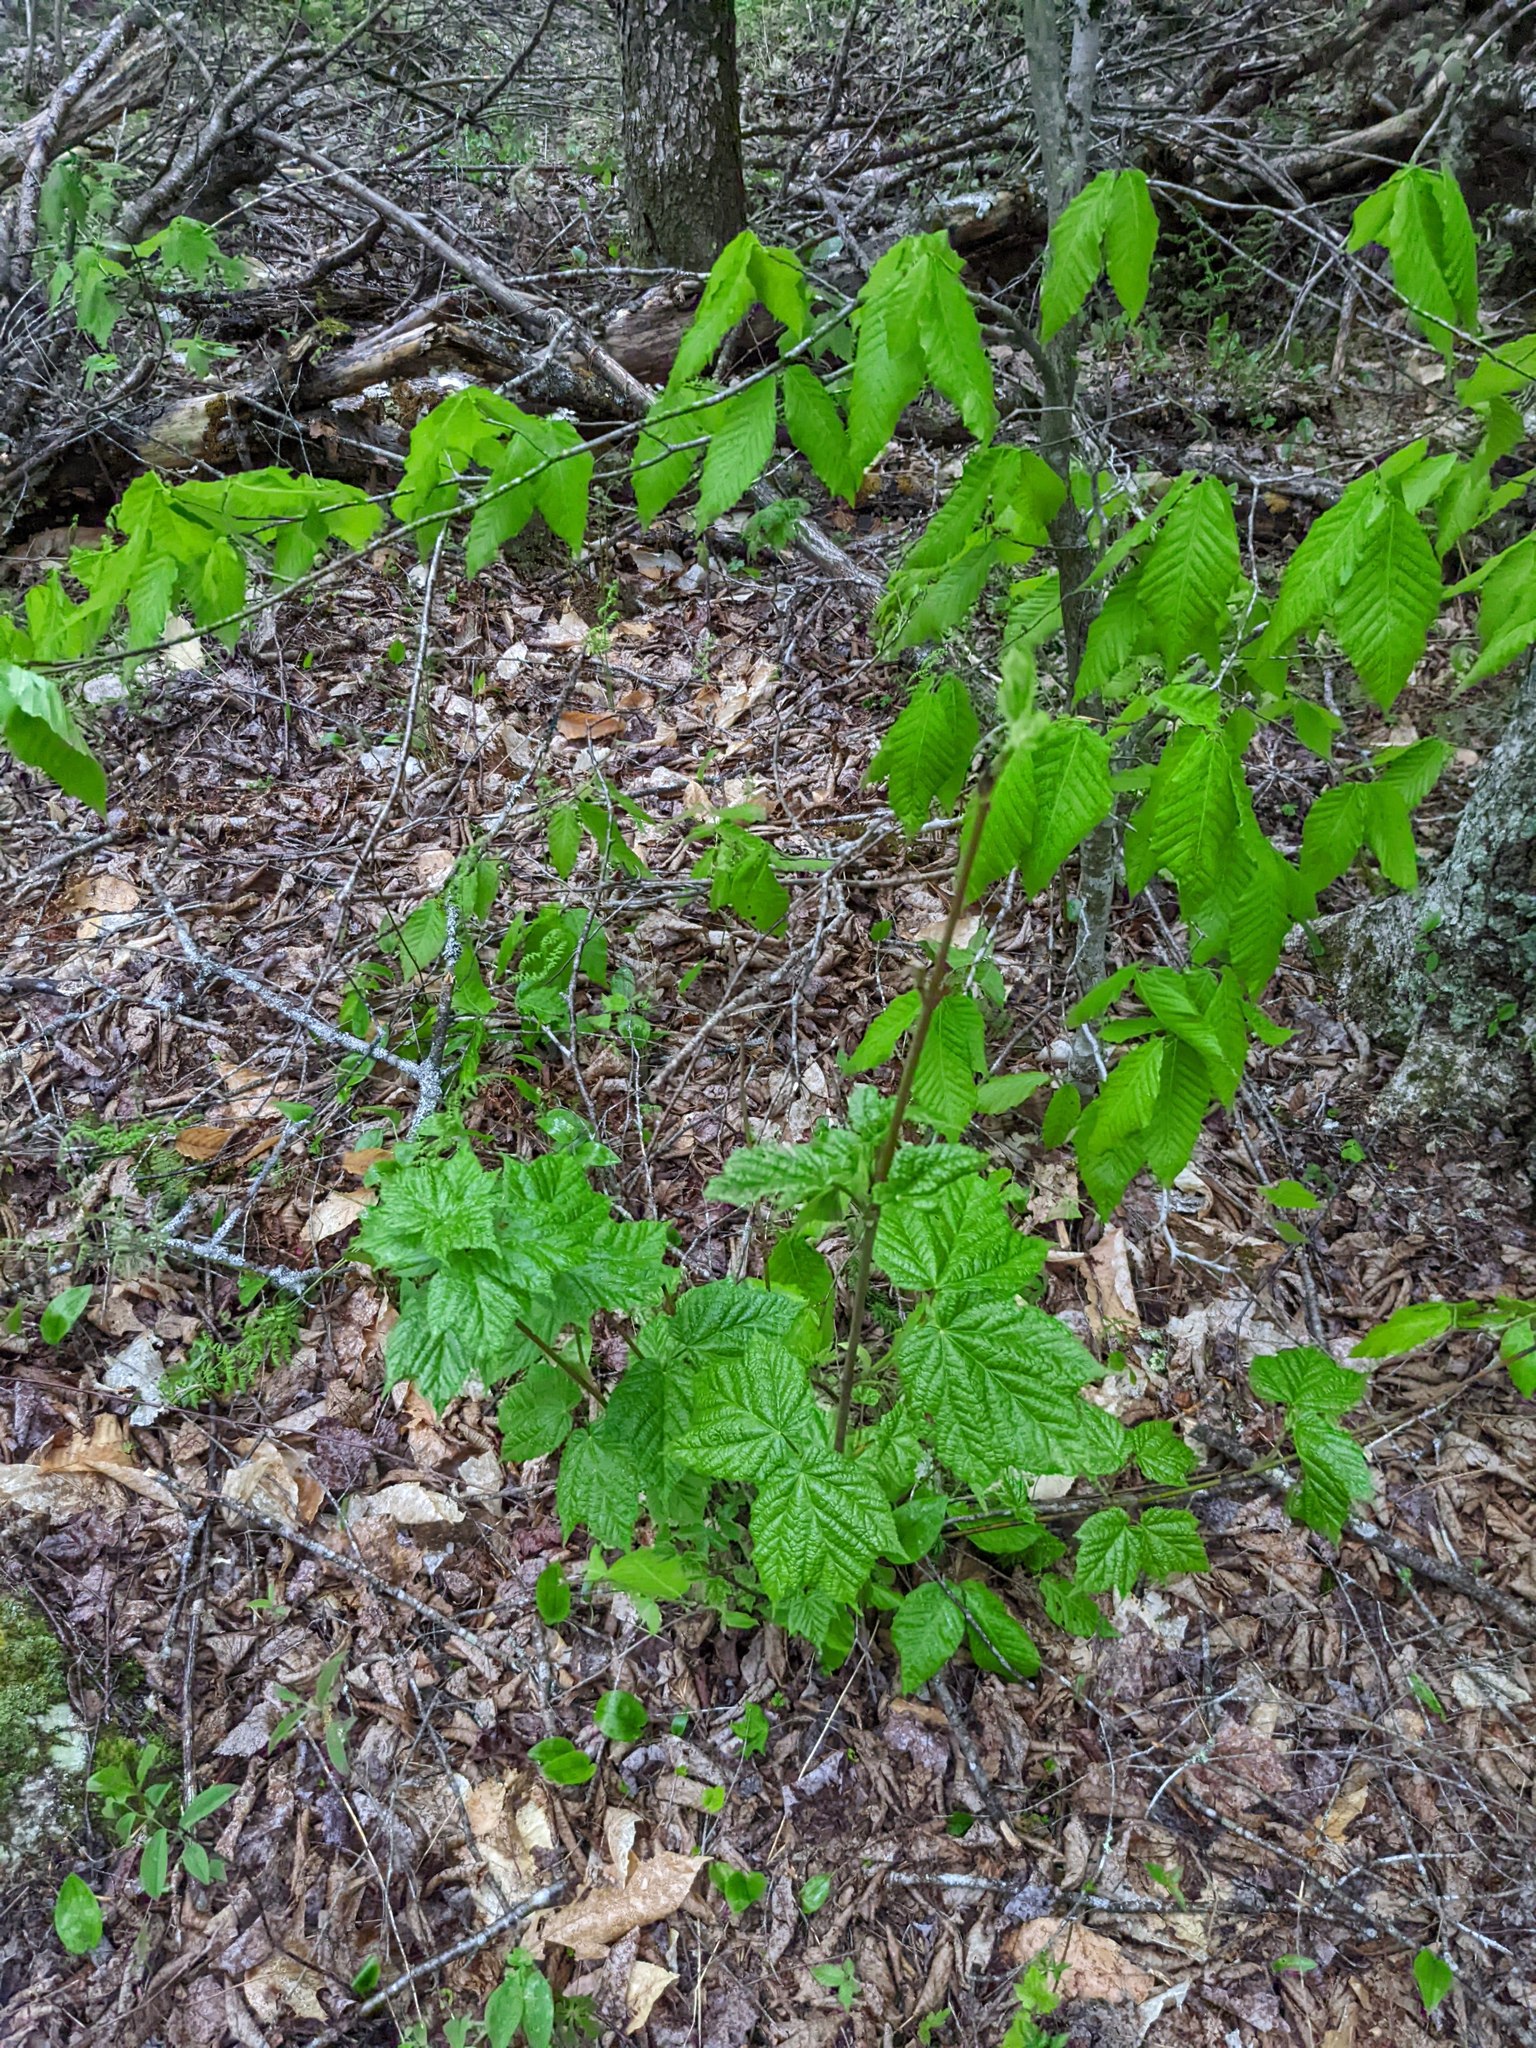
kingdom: Plantae
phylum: Tracheophyta
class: Magnoliopsida
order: Fagales
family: Fagaceae
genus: Fagus
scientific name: Fagus grandifolia
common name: American beech
